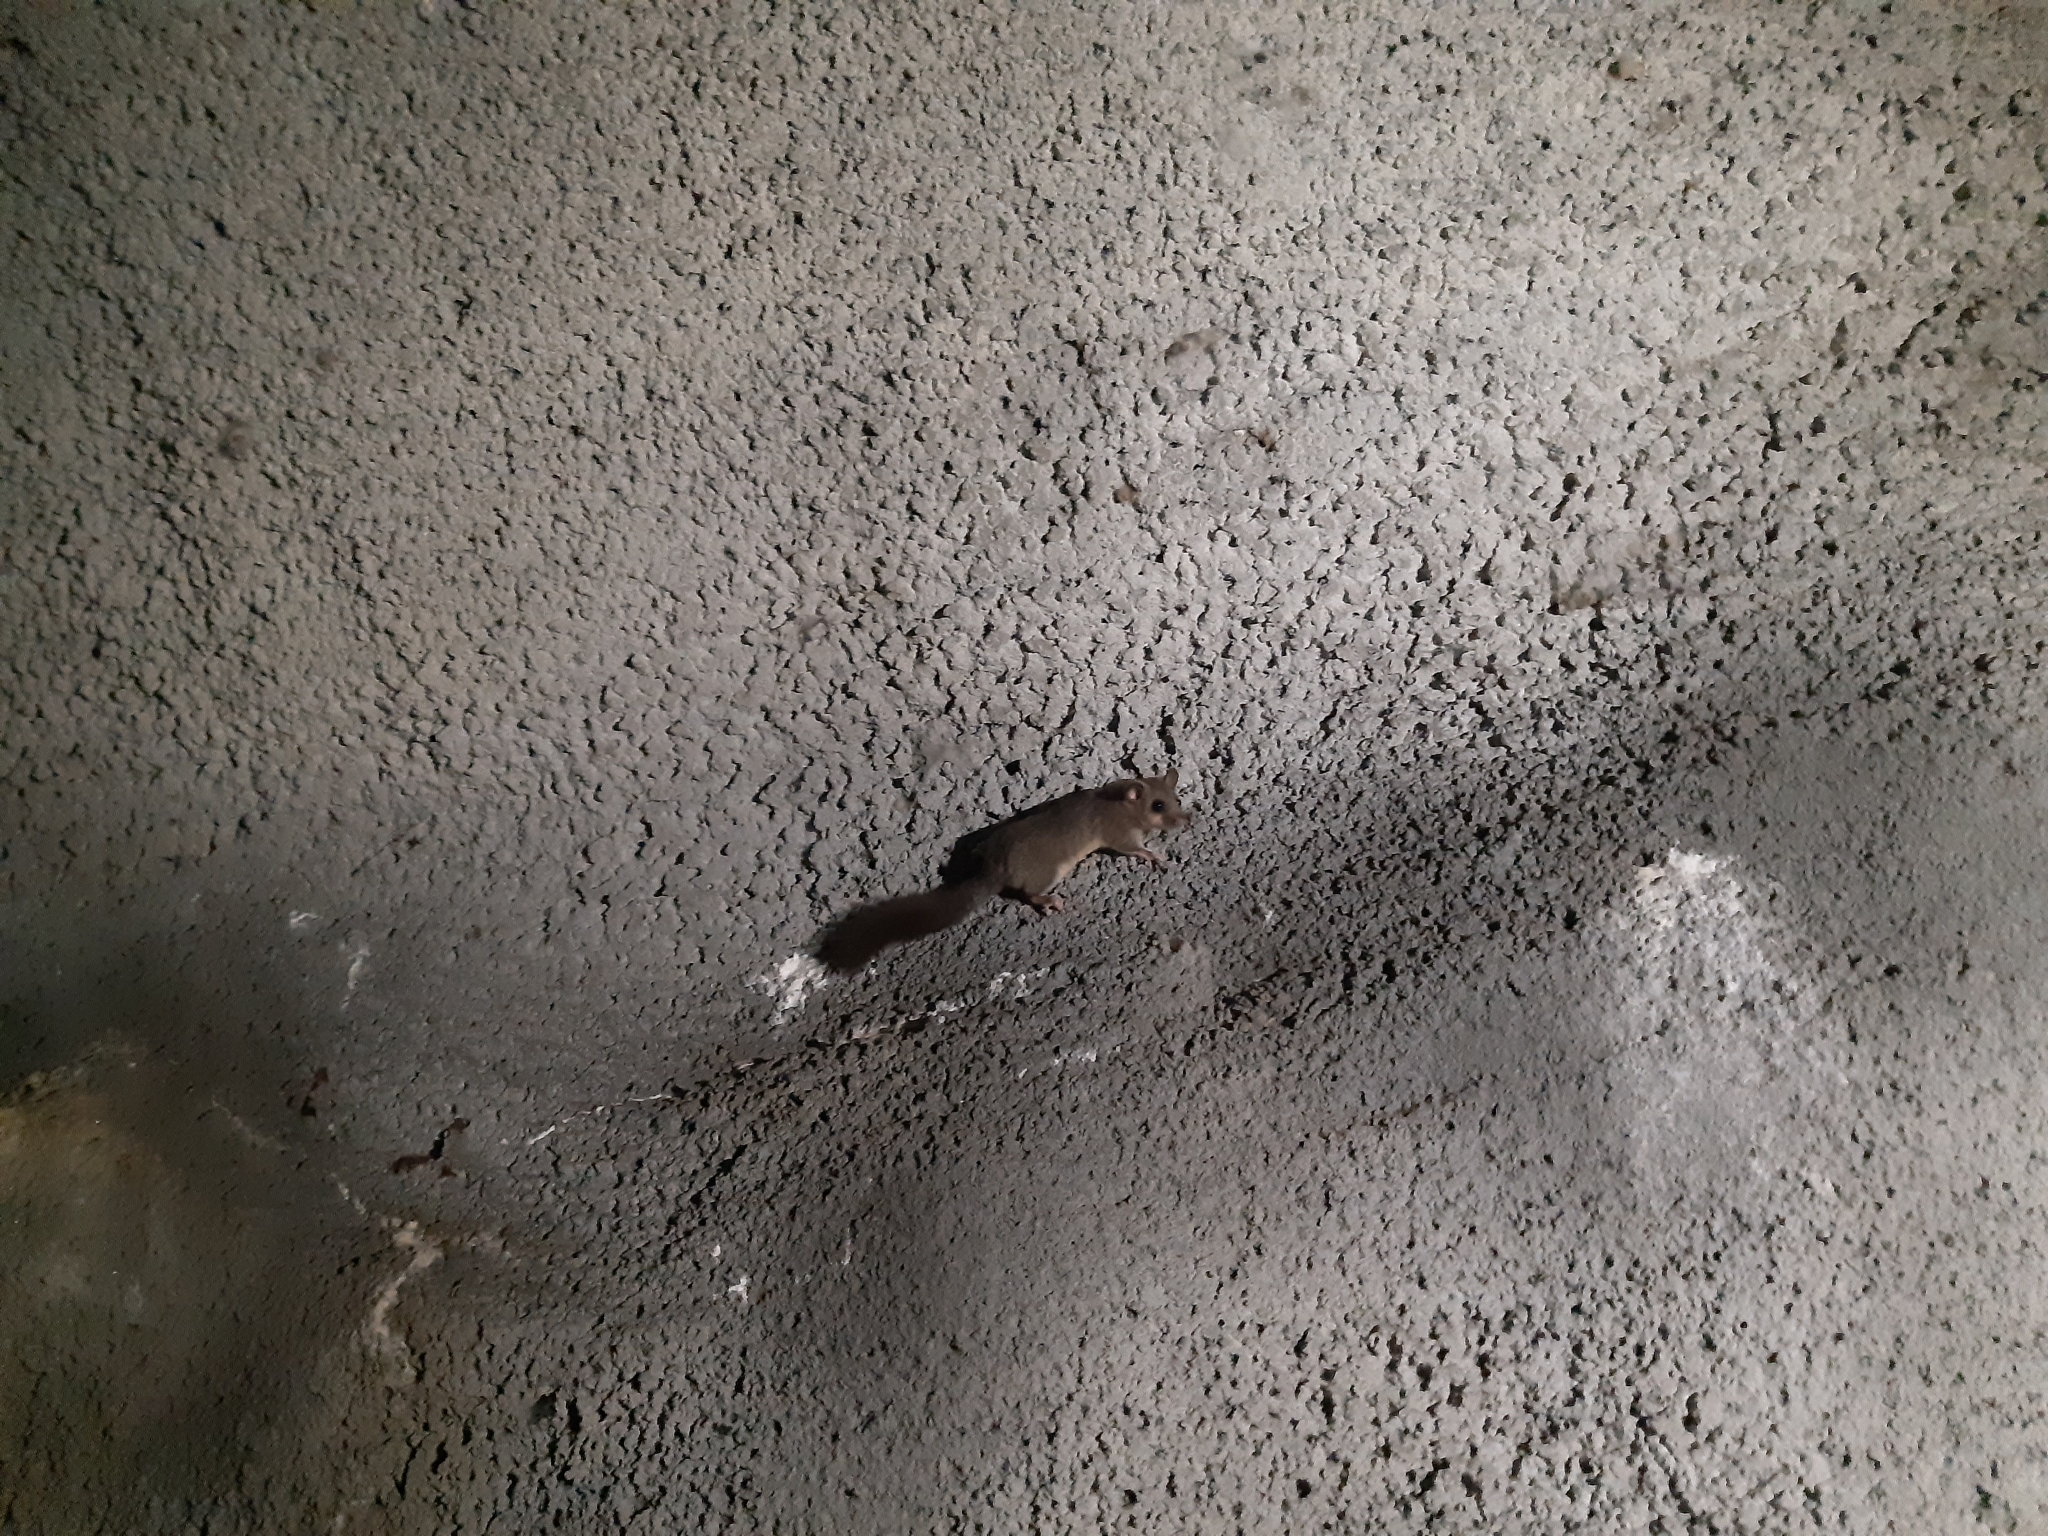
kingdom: Animalia
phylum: Chordata
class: Mammalia
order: Rodentia
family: Gliridae
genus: Glis
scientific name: Glis glis
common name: Fat dormouse
